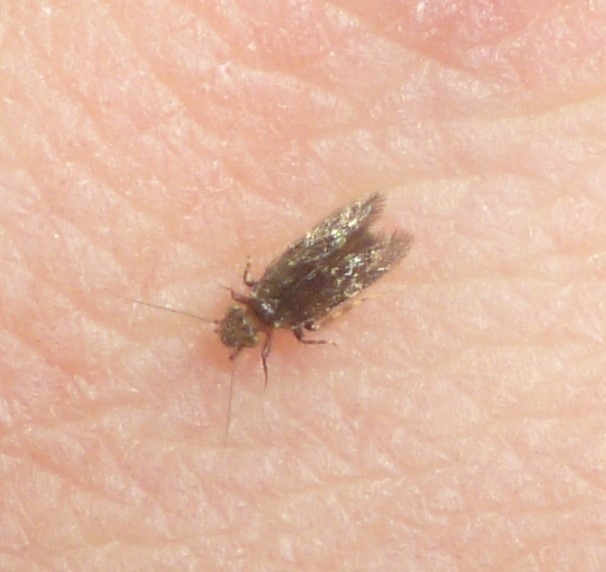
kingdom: Animalia
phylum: Arthropoda
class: Insecta
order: Psocodea
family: Lepidopsocidae
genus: Echmepteryx
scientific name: Echmepteryx hageni
